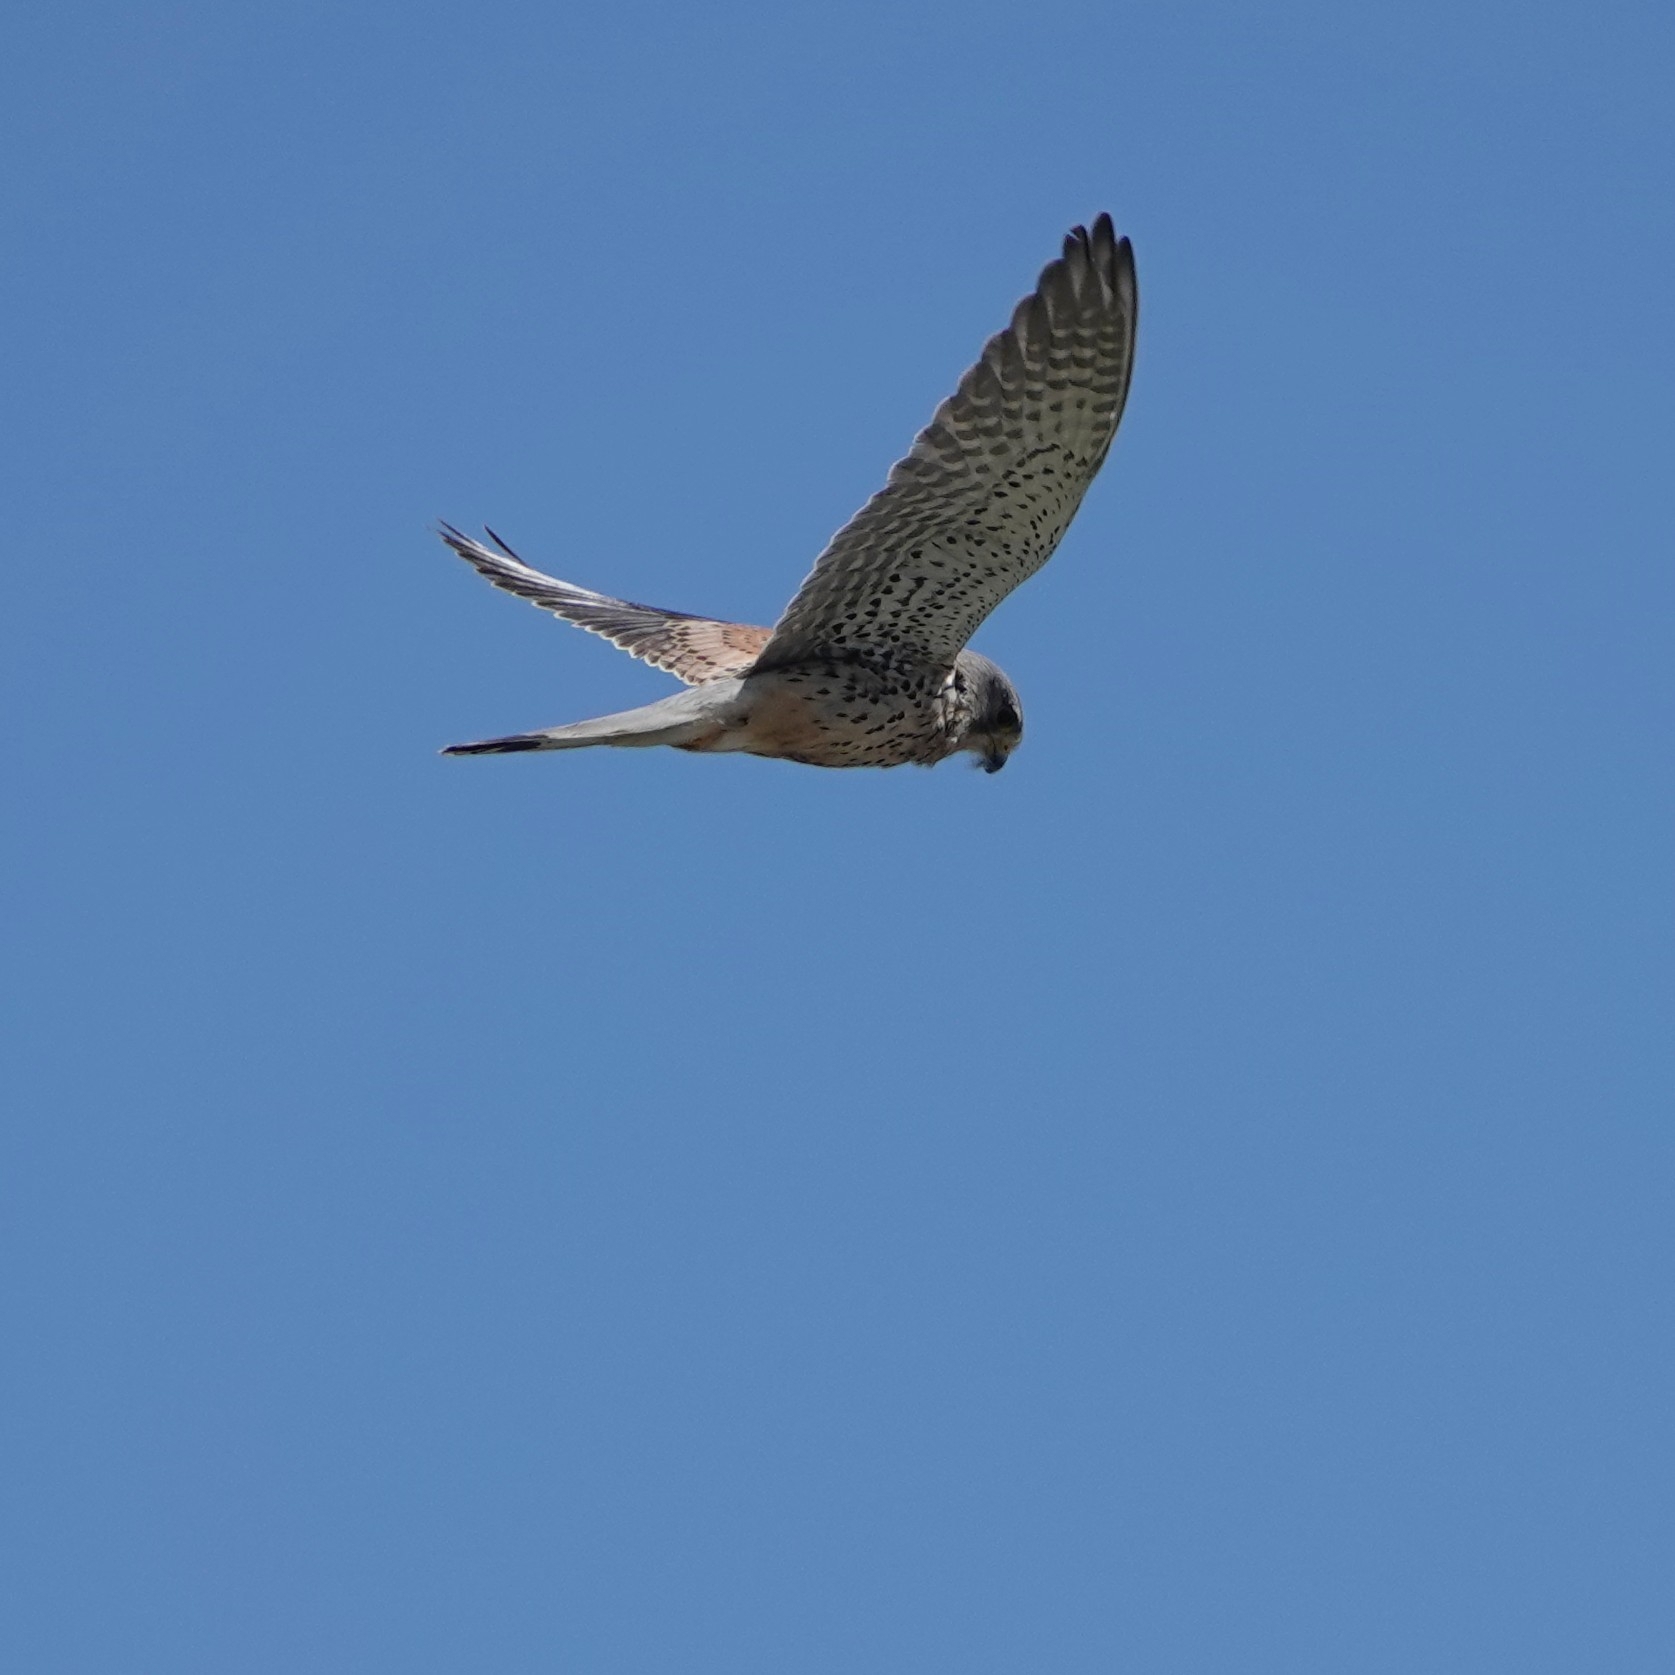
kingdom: Animalia
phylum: Chordata
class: Aves
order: Falconiformes
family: Falconidae
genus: Falco
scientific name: Falco tinnunculus
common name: Common kestrel
